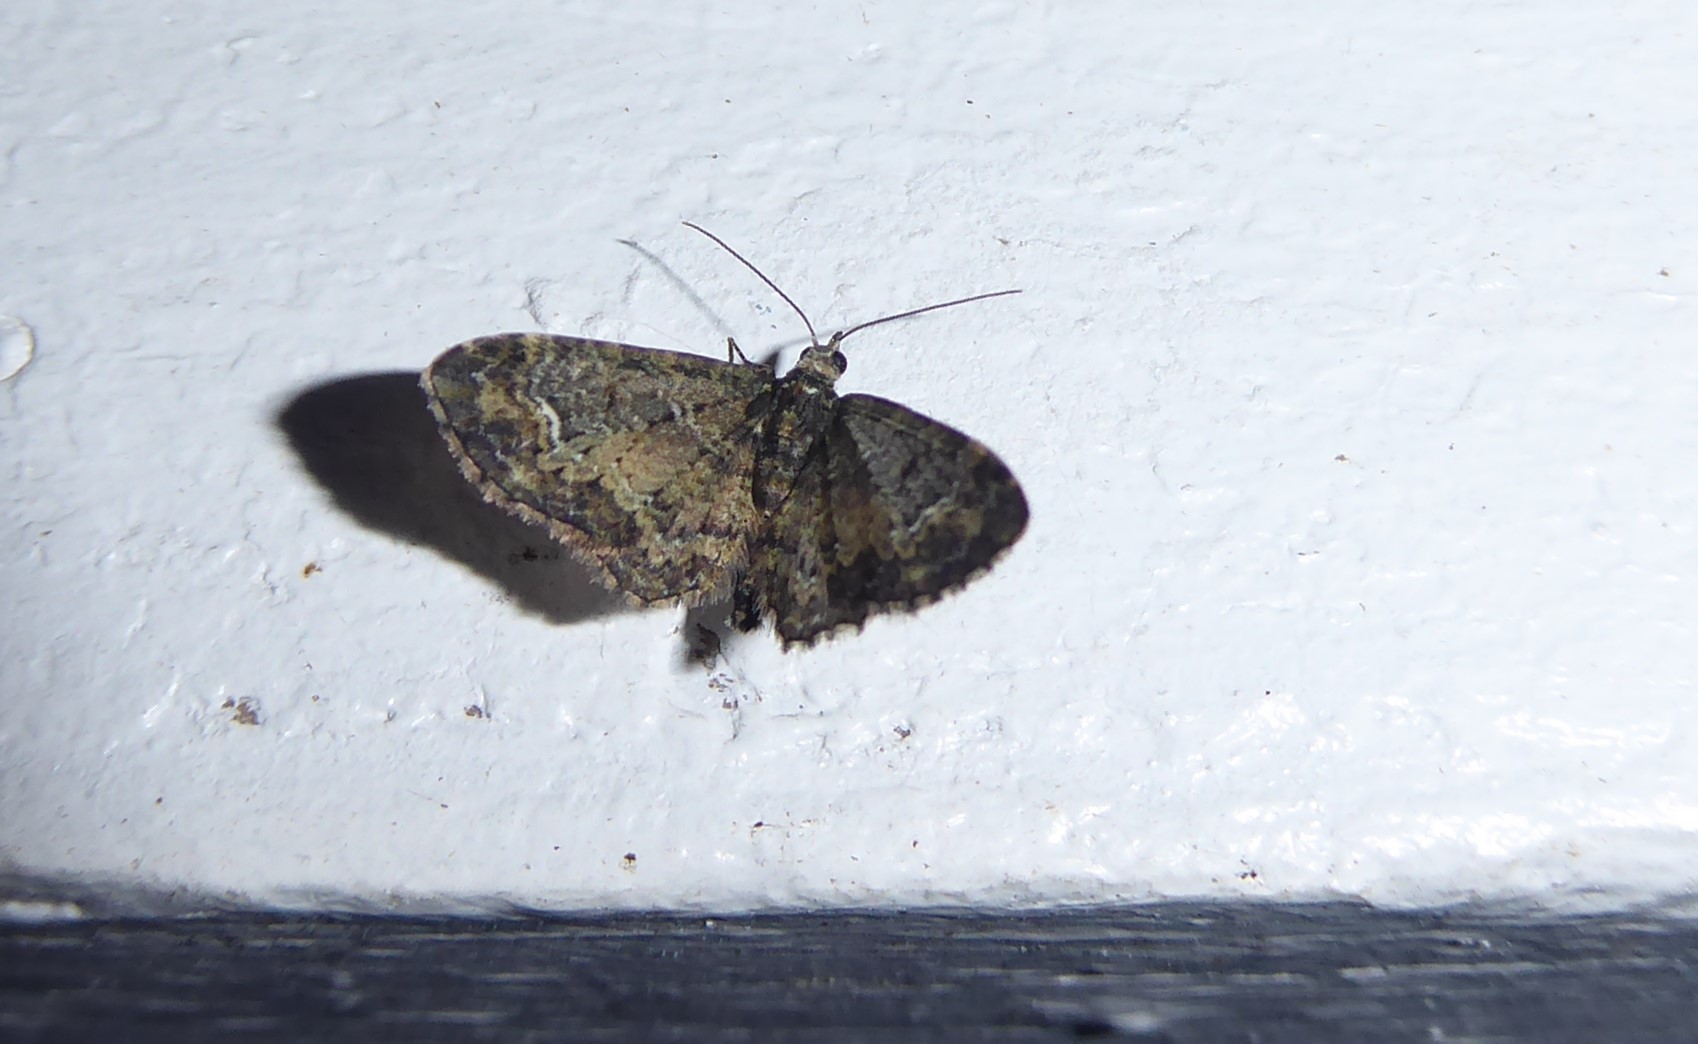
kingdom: Animalia
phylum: Arthropoda
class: Insecta
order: Lepidoptera
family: Geometridae
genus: Pasiphilodes
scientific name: Pasiphilodes testulata
